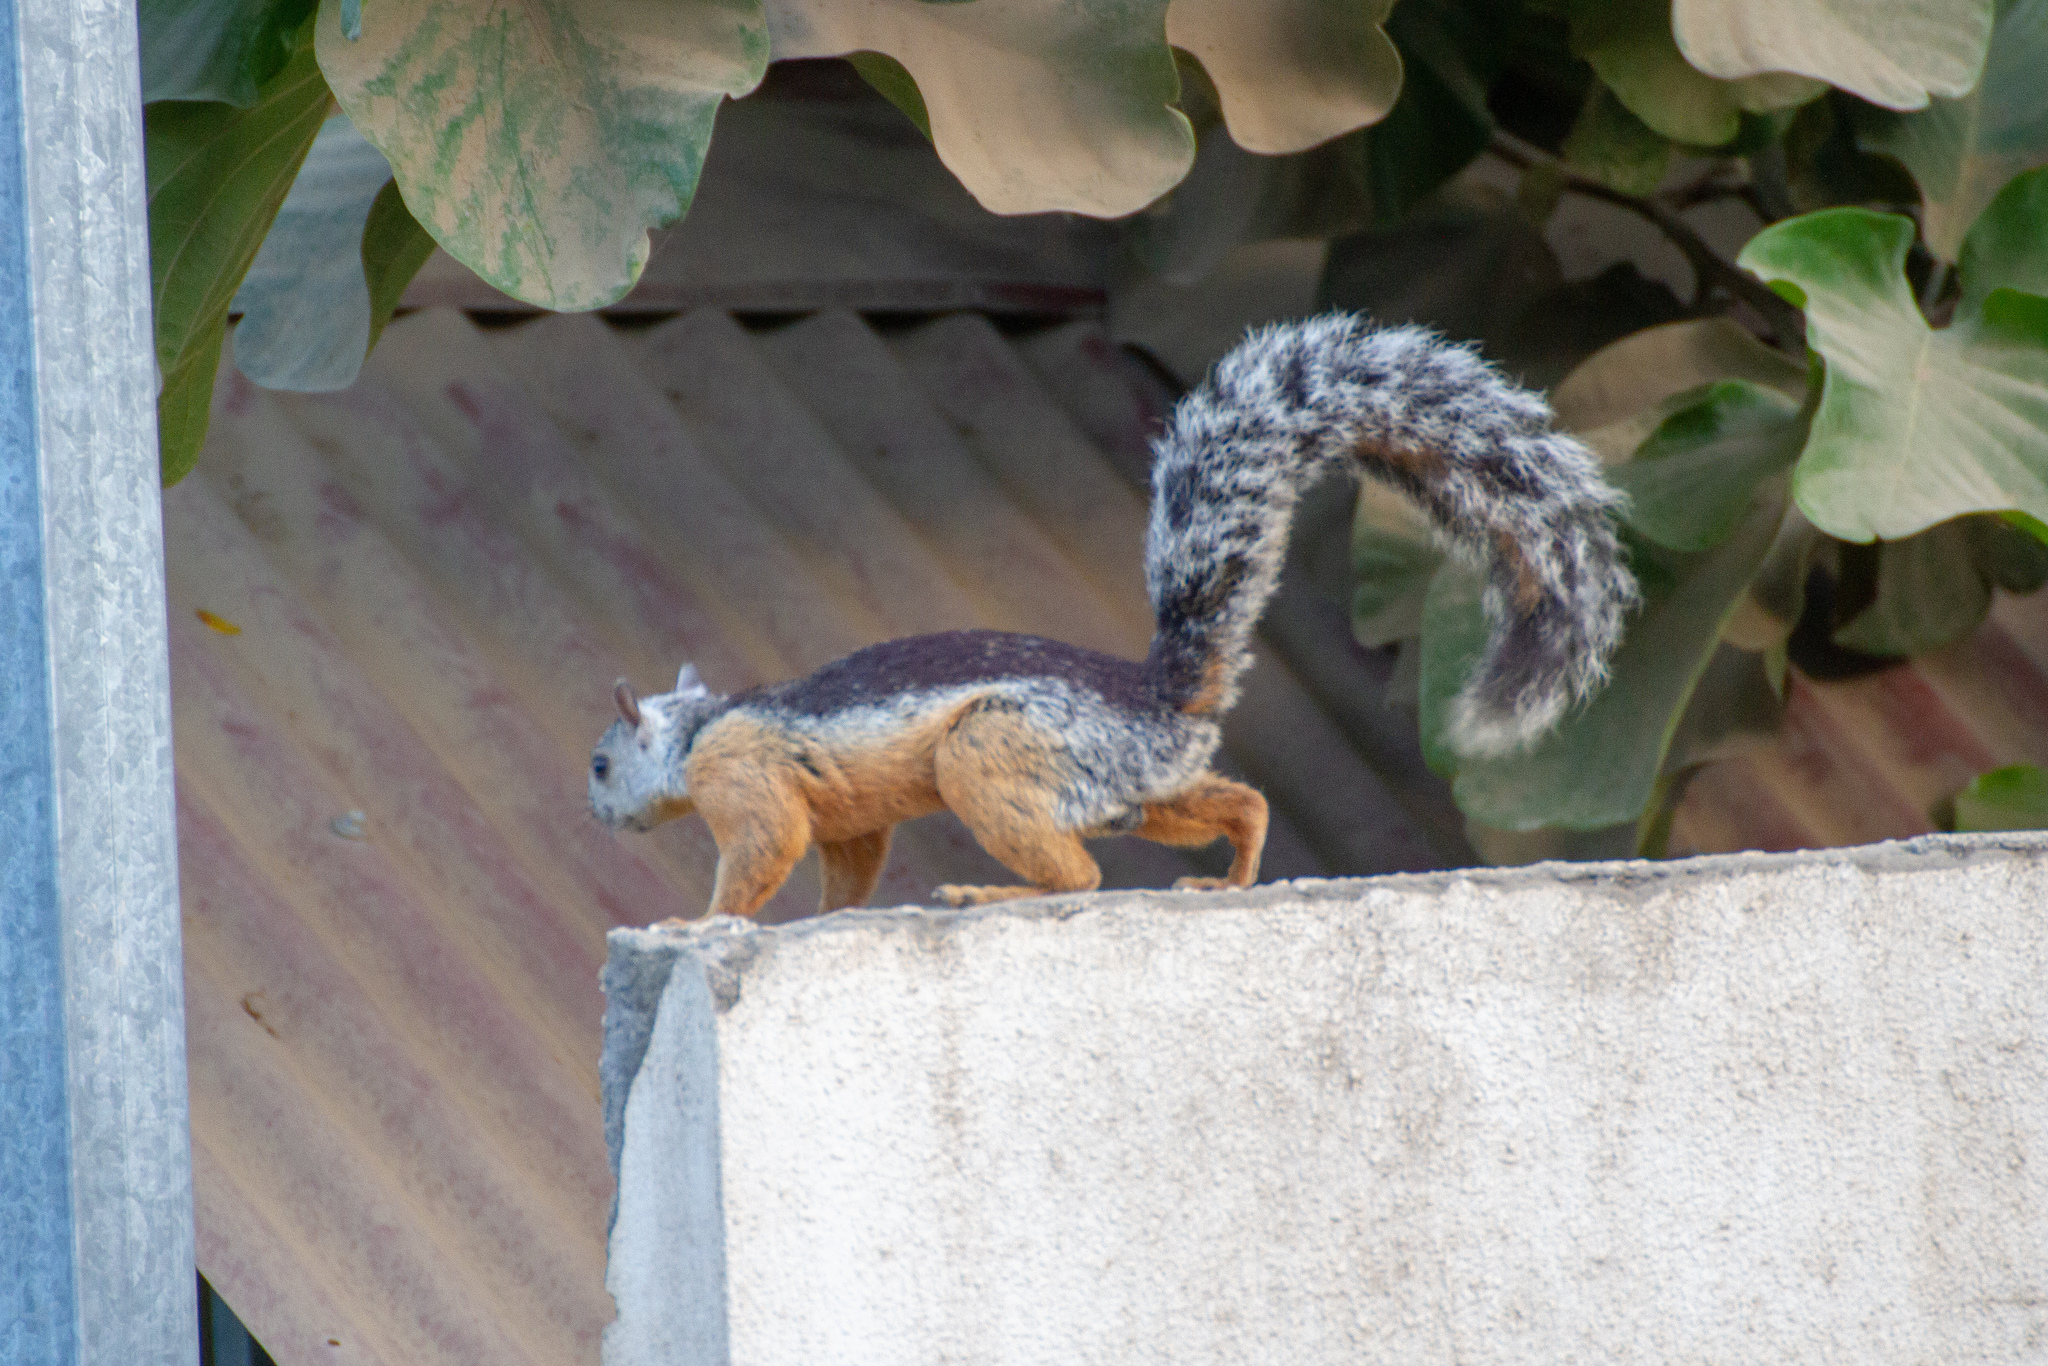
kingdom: Animalia
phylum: Chordata
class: Mammalia
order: Rodentia
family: Sciuridae
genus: Sciurus
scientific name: Sciurus variegatoides
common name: Variegated squirrel
